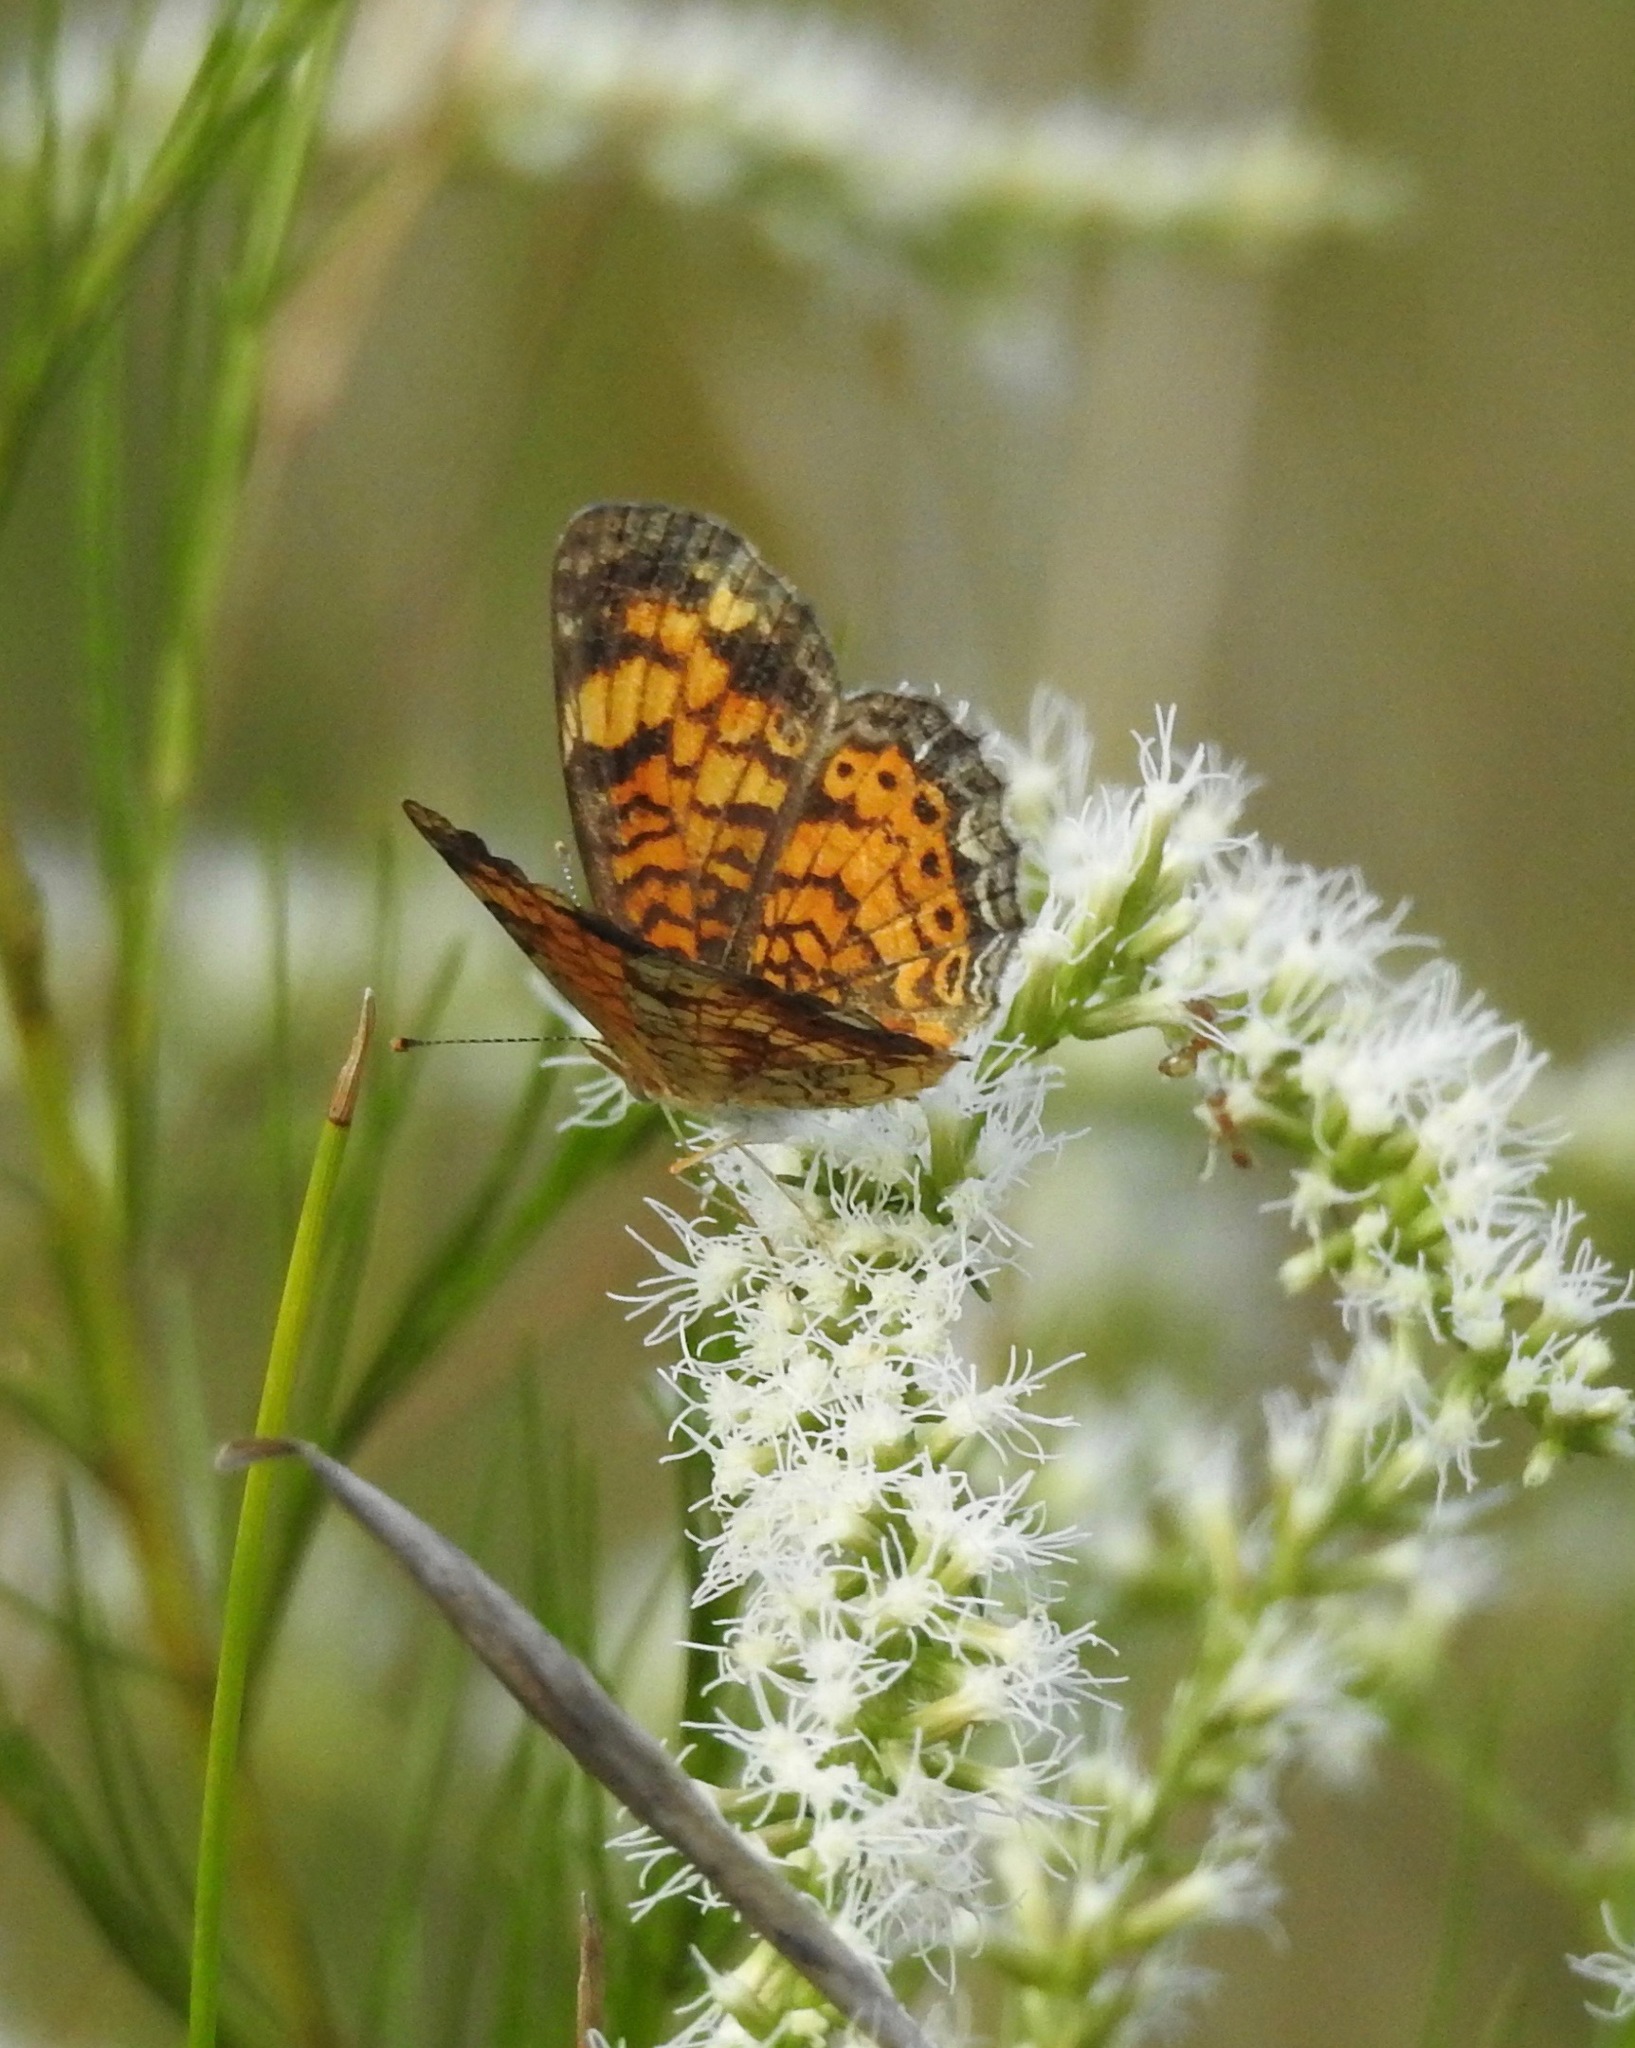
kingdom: Animalia
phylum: Arthropoda
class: Insecta
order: Lepidoptera
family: Nymphalidae
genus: Phyciodes
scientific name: Phyciodes tharos
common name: Pearl crescent
